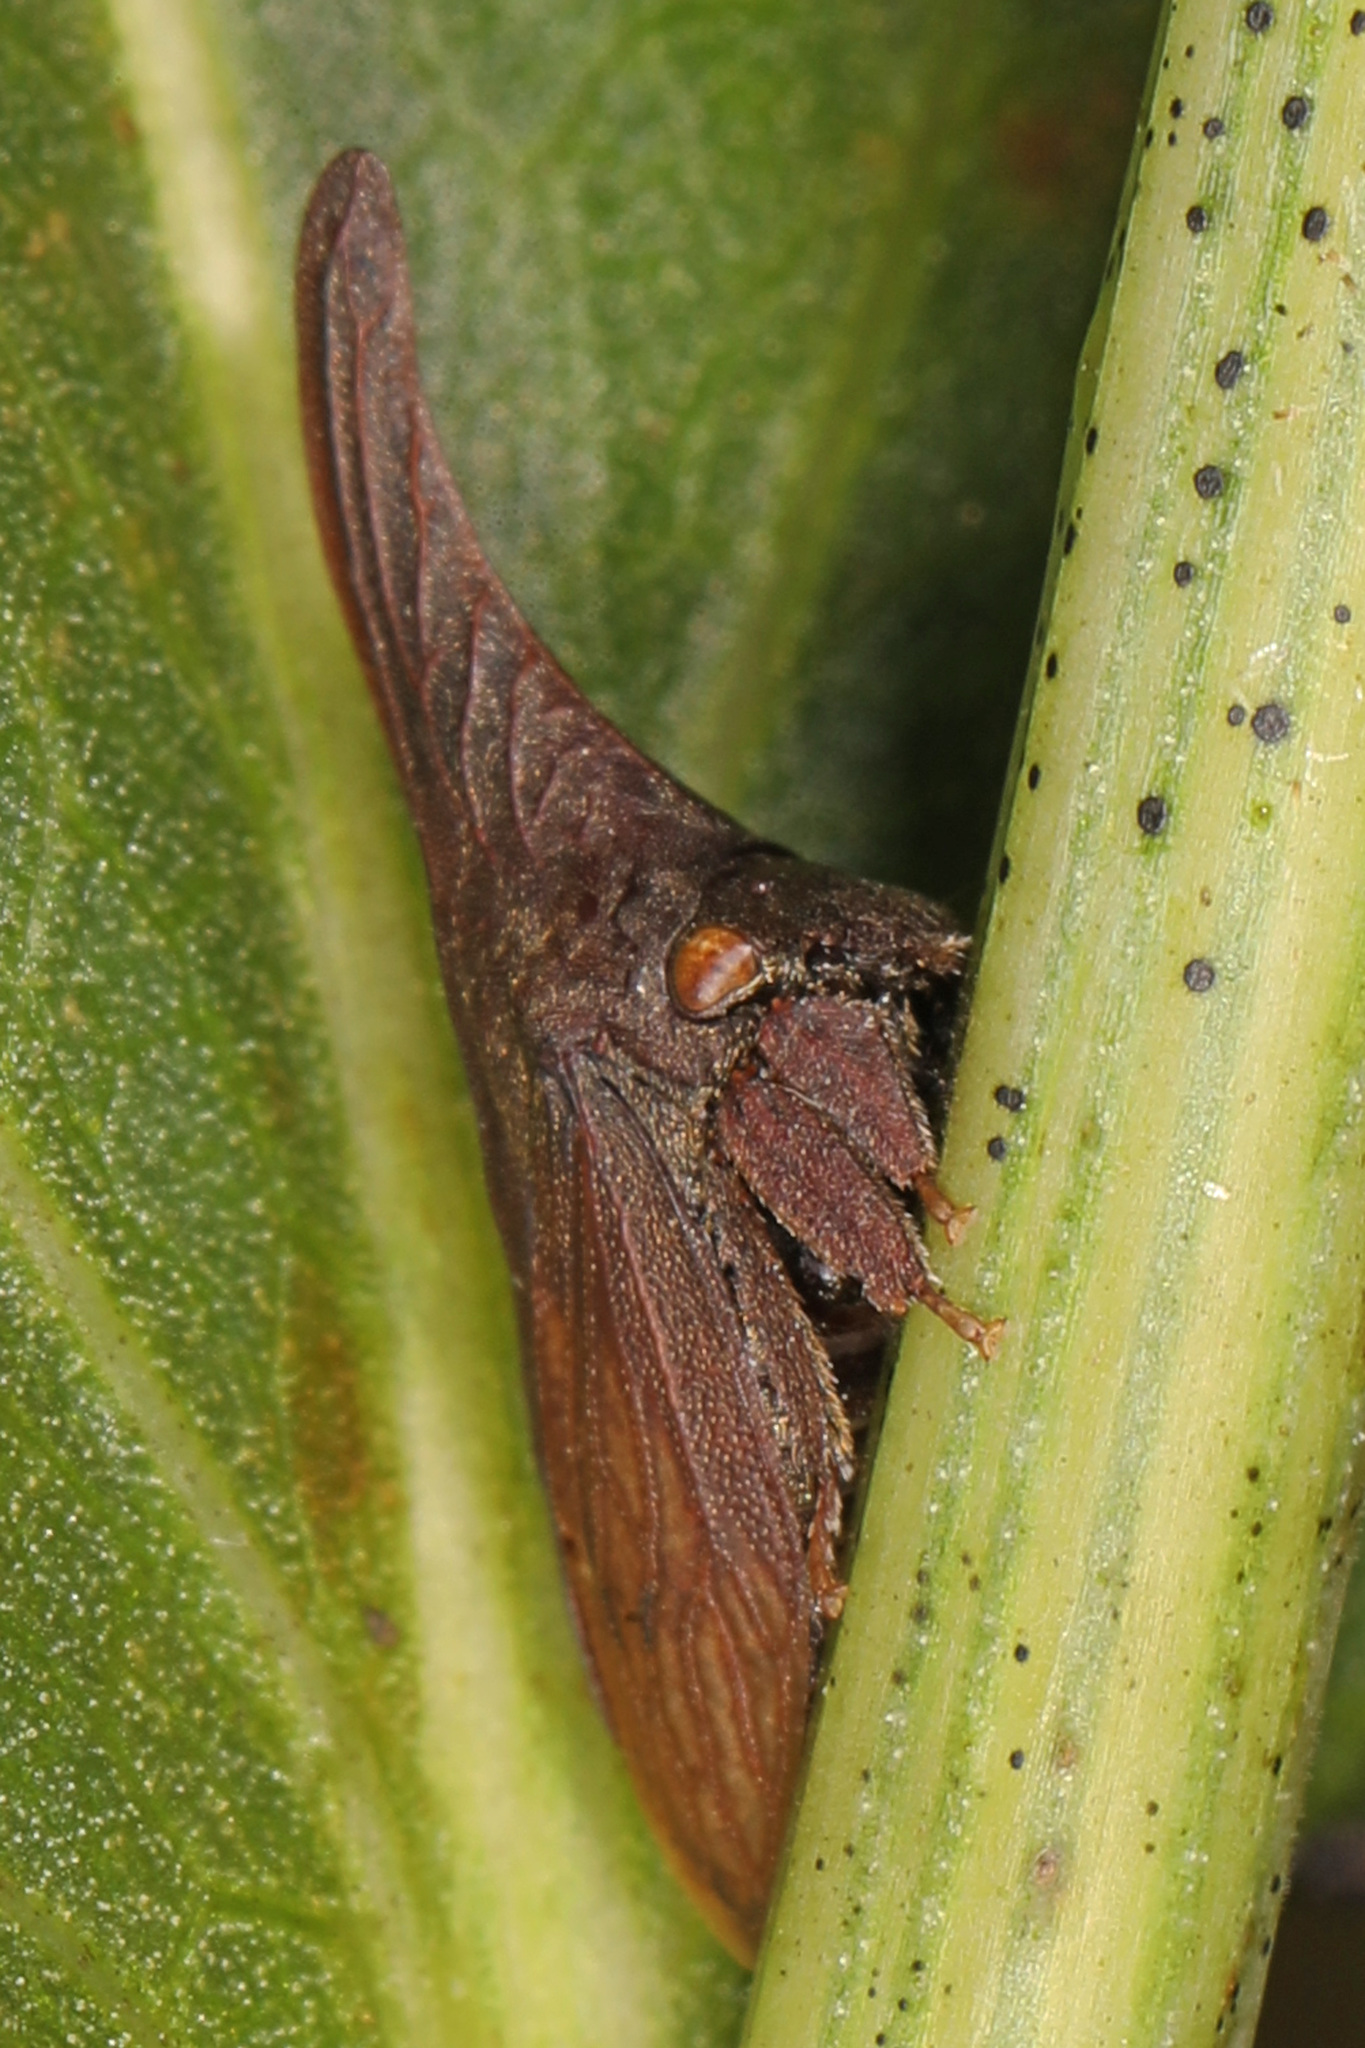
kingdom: Animalia
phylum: Arthropoda
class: Insecta
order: Hemiptera
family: Membracidae
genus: Enchenopa
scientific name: Enchenopa latipes
